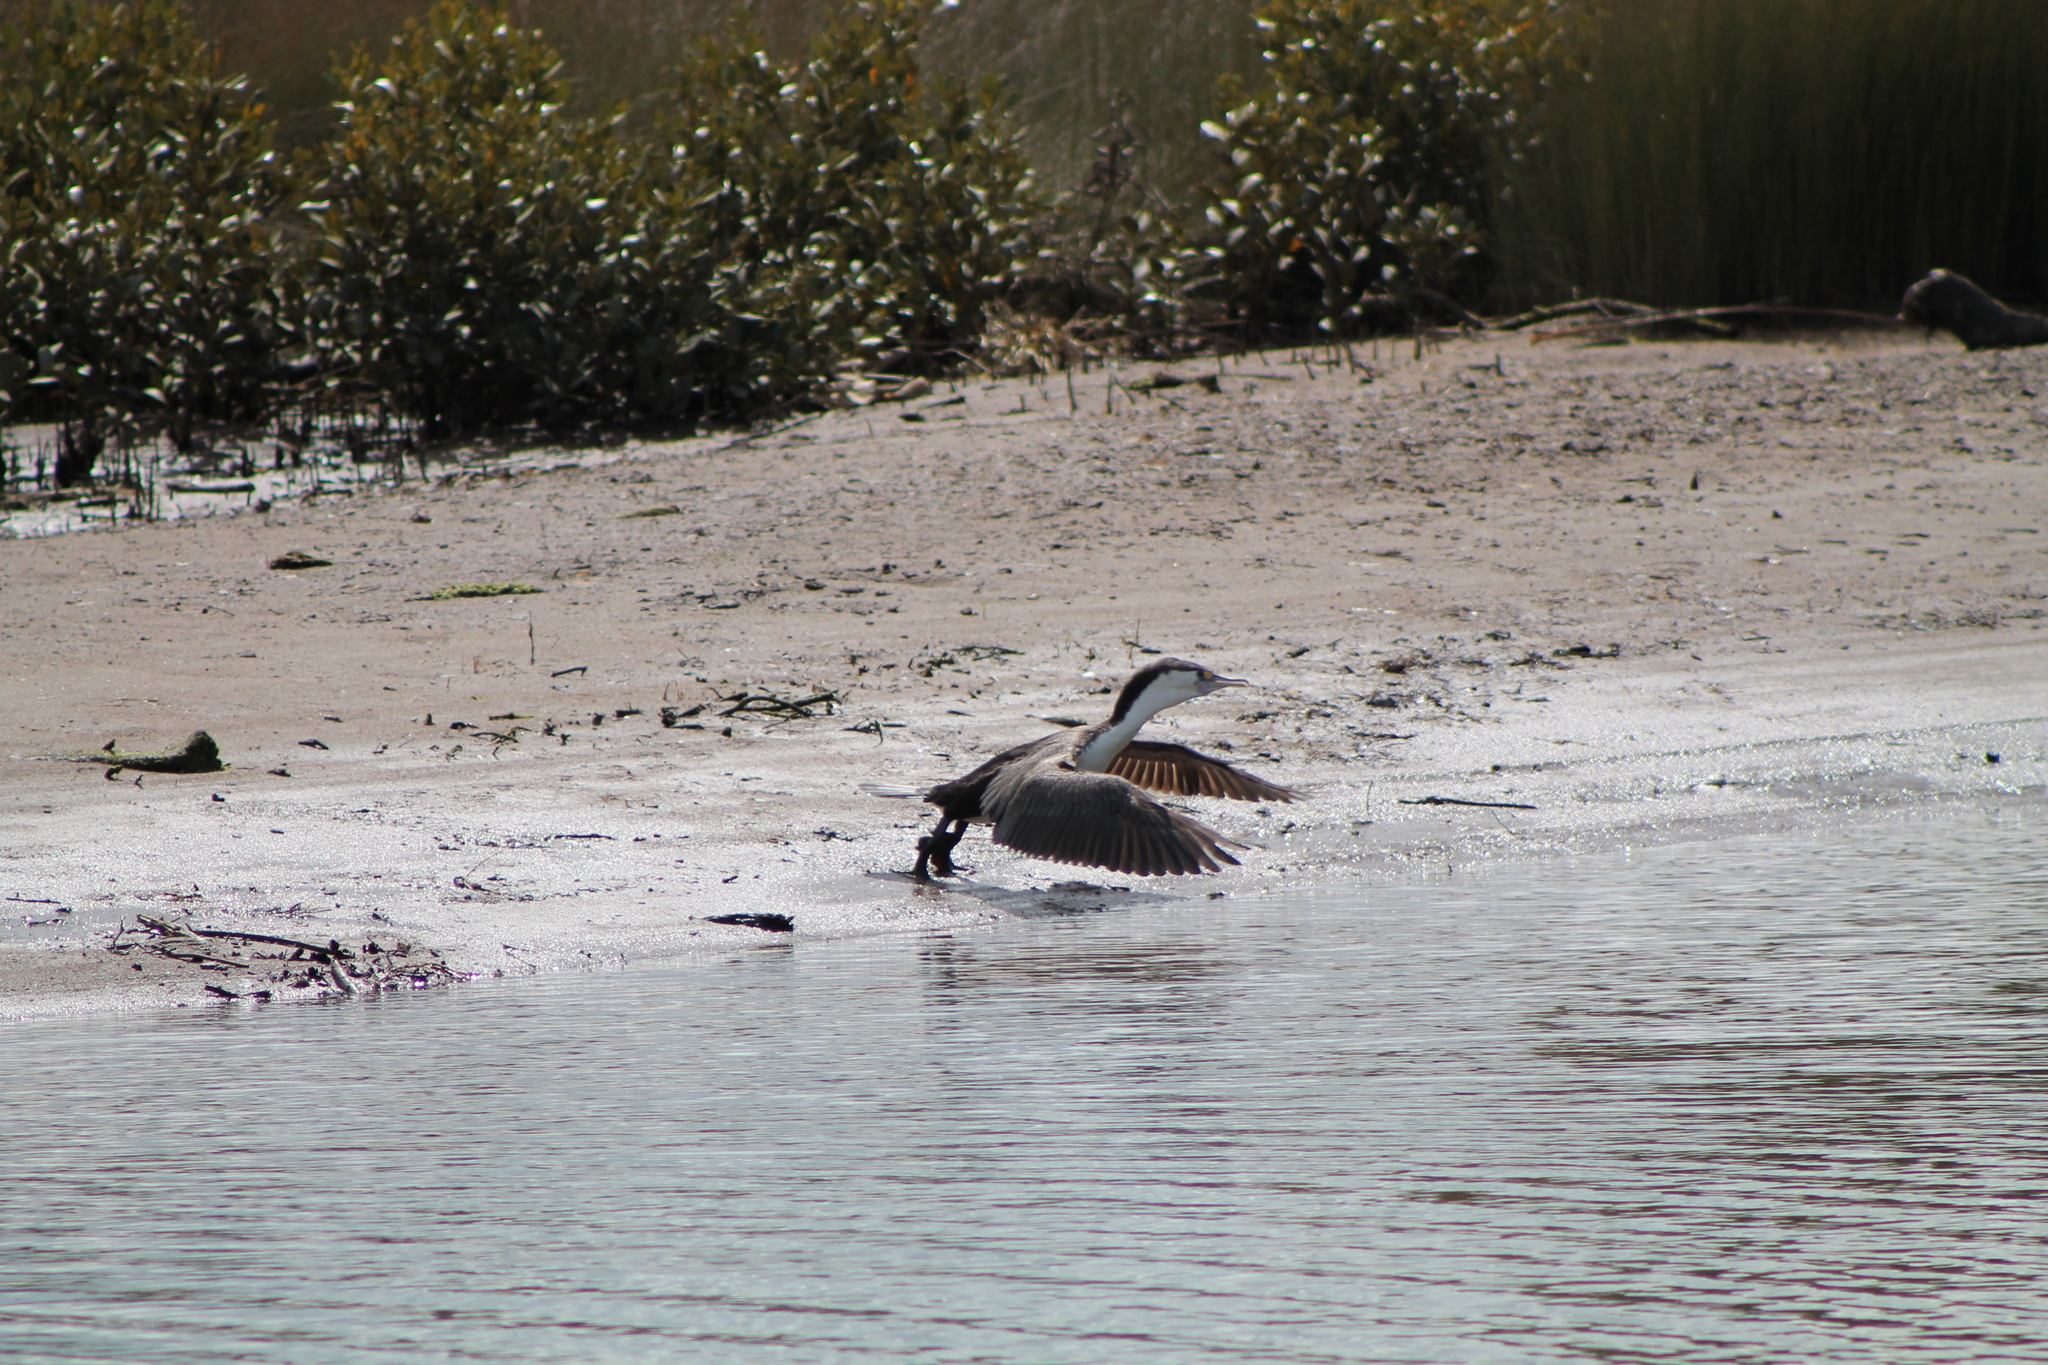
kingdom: Animalia
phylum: Chordata
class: Aves
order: Suliformes
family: Phalacrocoracidae
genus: Phalacrocorax
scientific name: Phalacrocorax varius
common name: Pied cormorant
